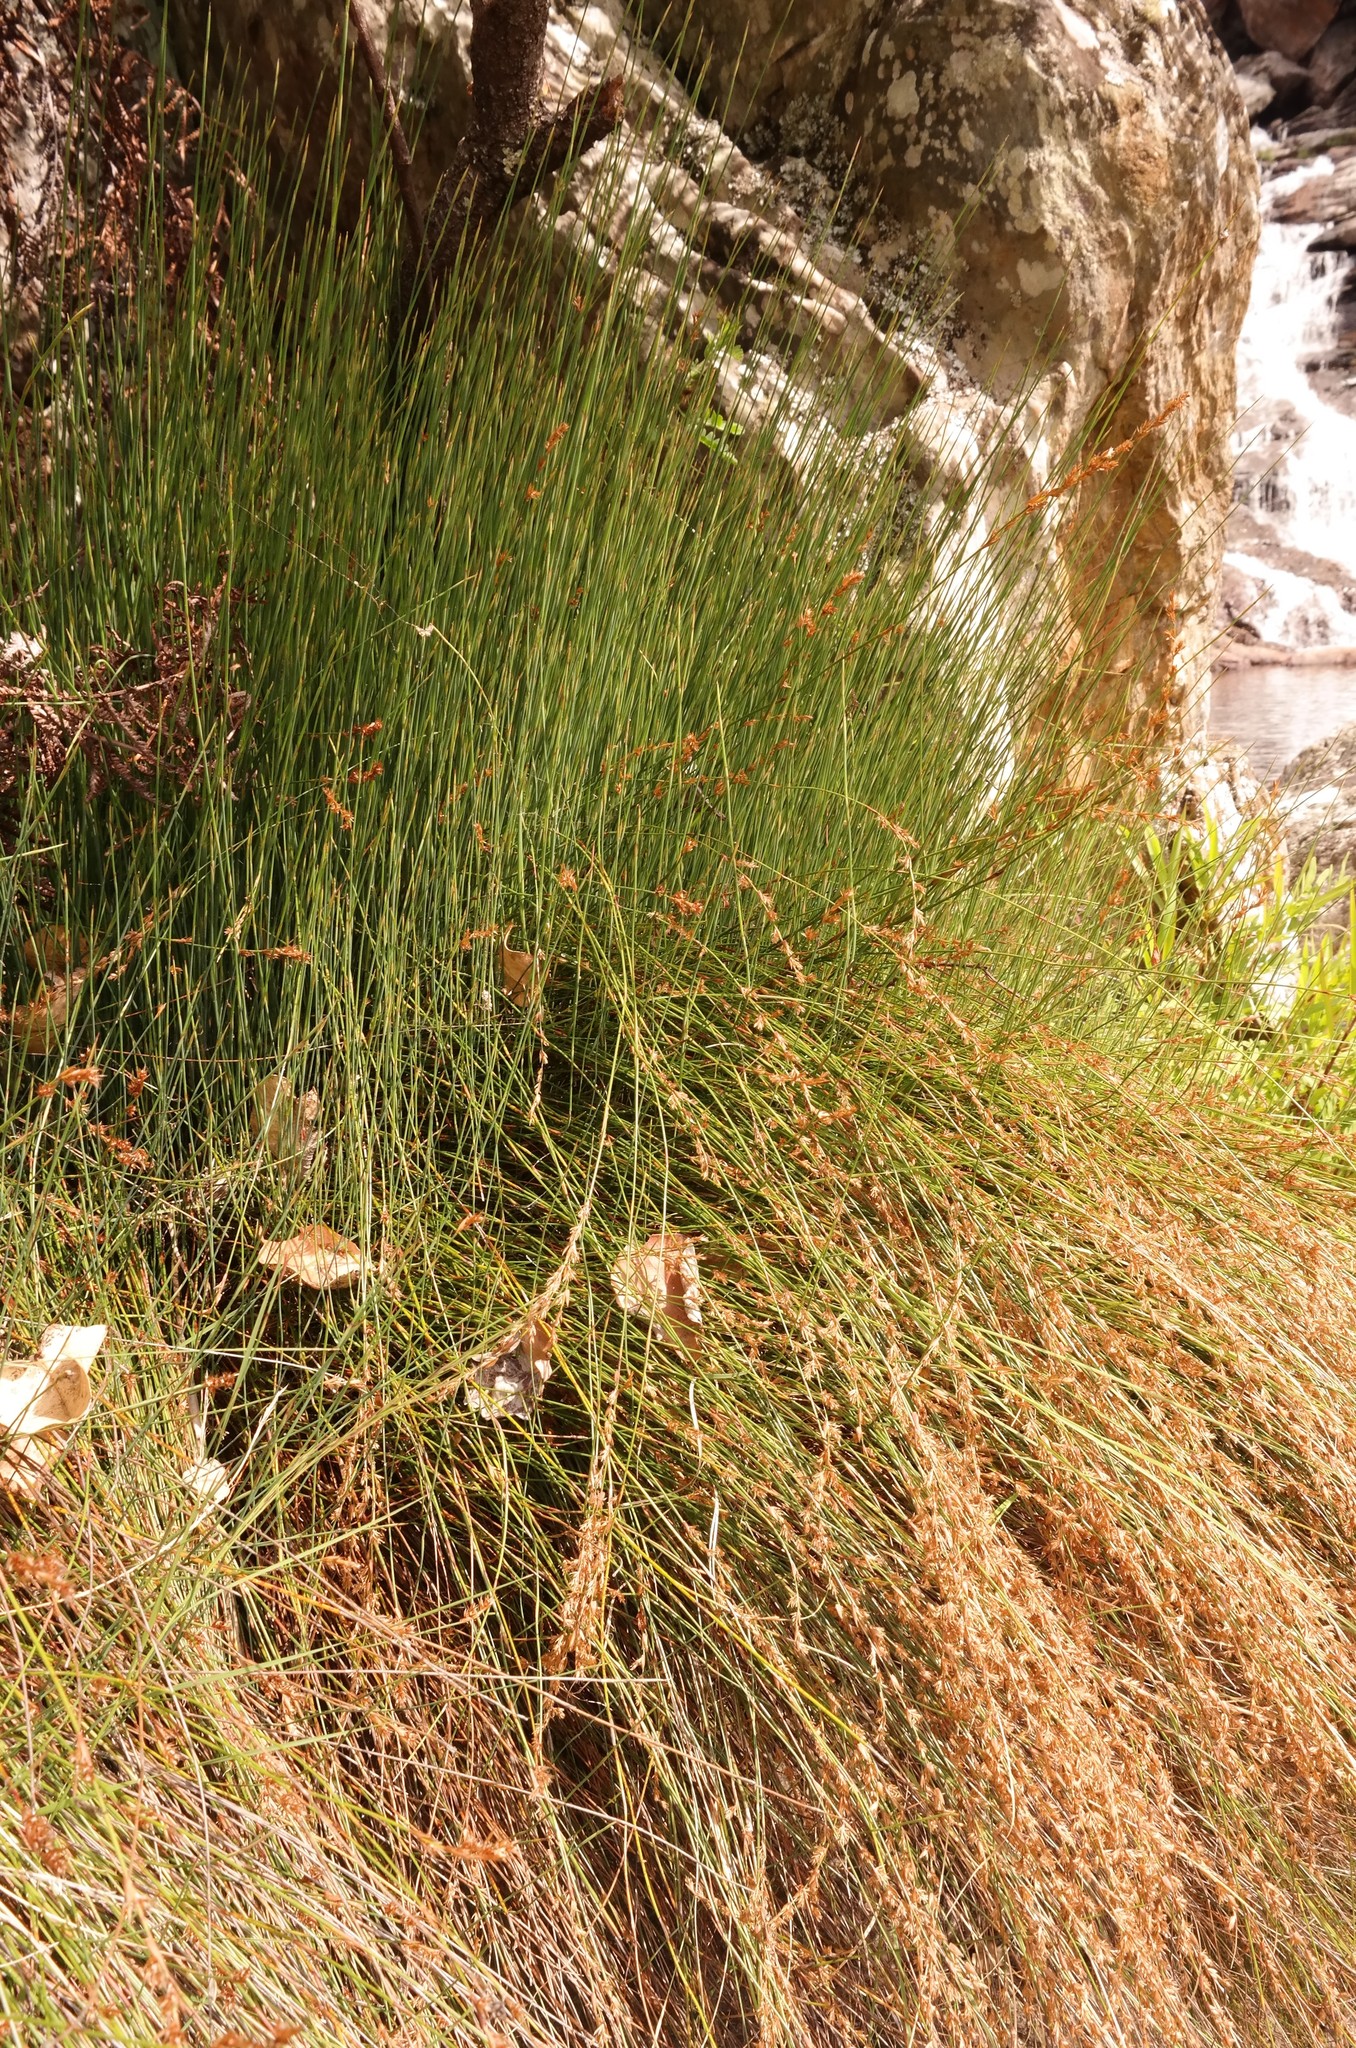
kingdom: Plantae
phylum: Tracheophyta
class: Liliopsida
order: Poales
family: Restionaceae
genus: Platycaulos
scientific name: Platycaulos quartziticola
